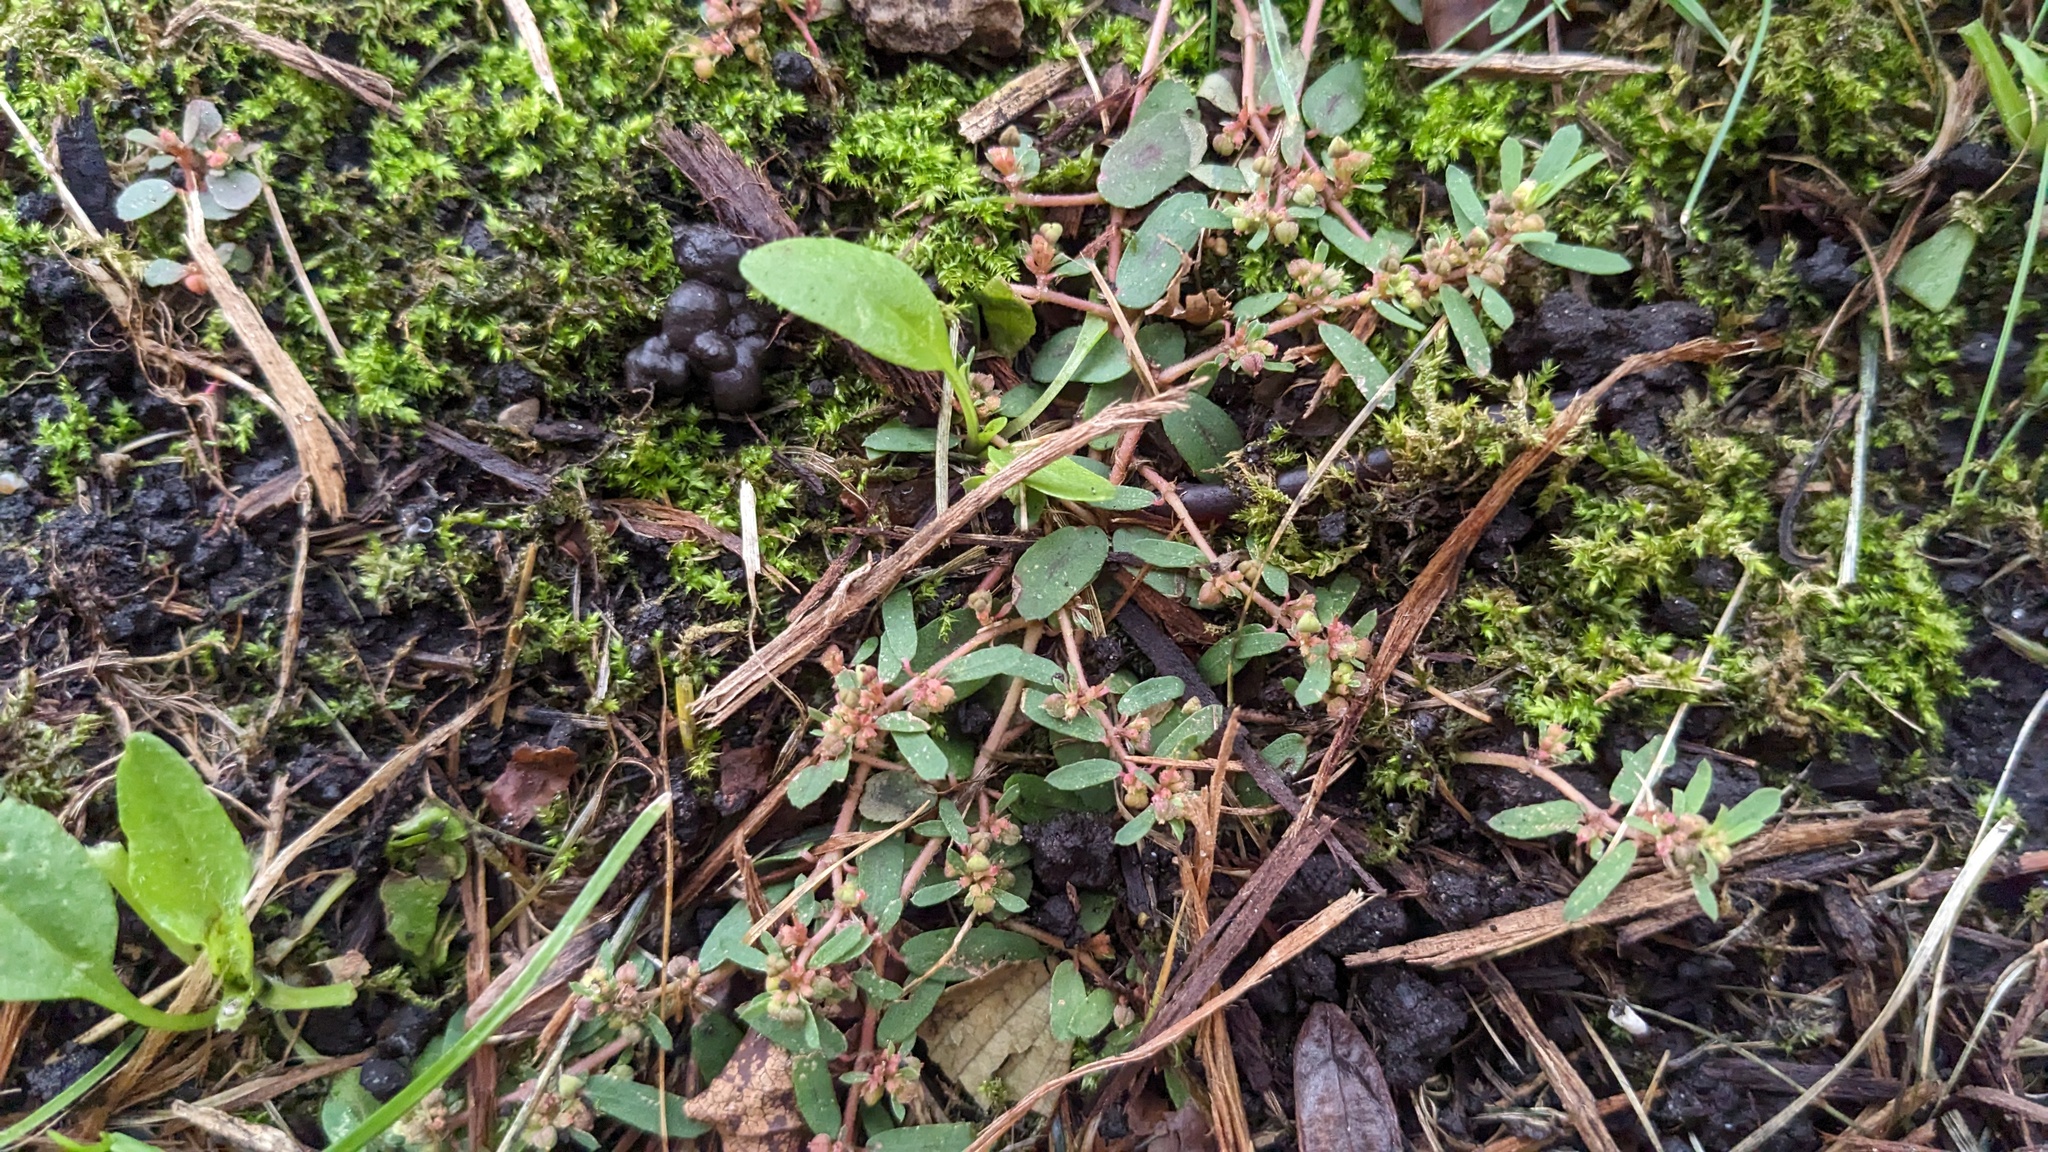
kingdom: Plantae
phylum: Tracheophyta
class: Magnoliopsida
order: Malpighiales
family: Euphorbiaceae
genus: Euphorbia
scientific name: Euphorbia maculata
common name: Spotted spurge
